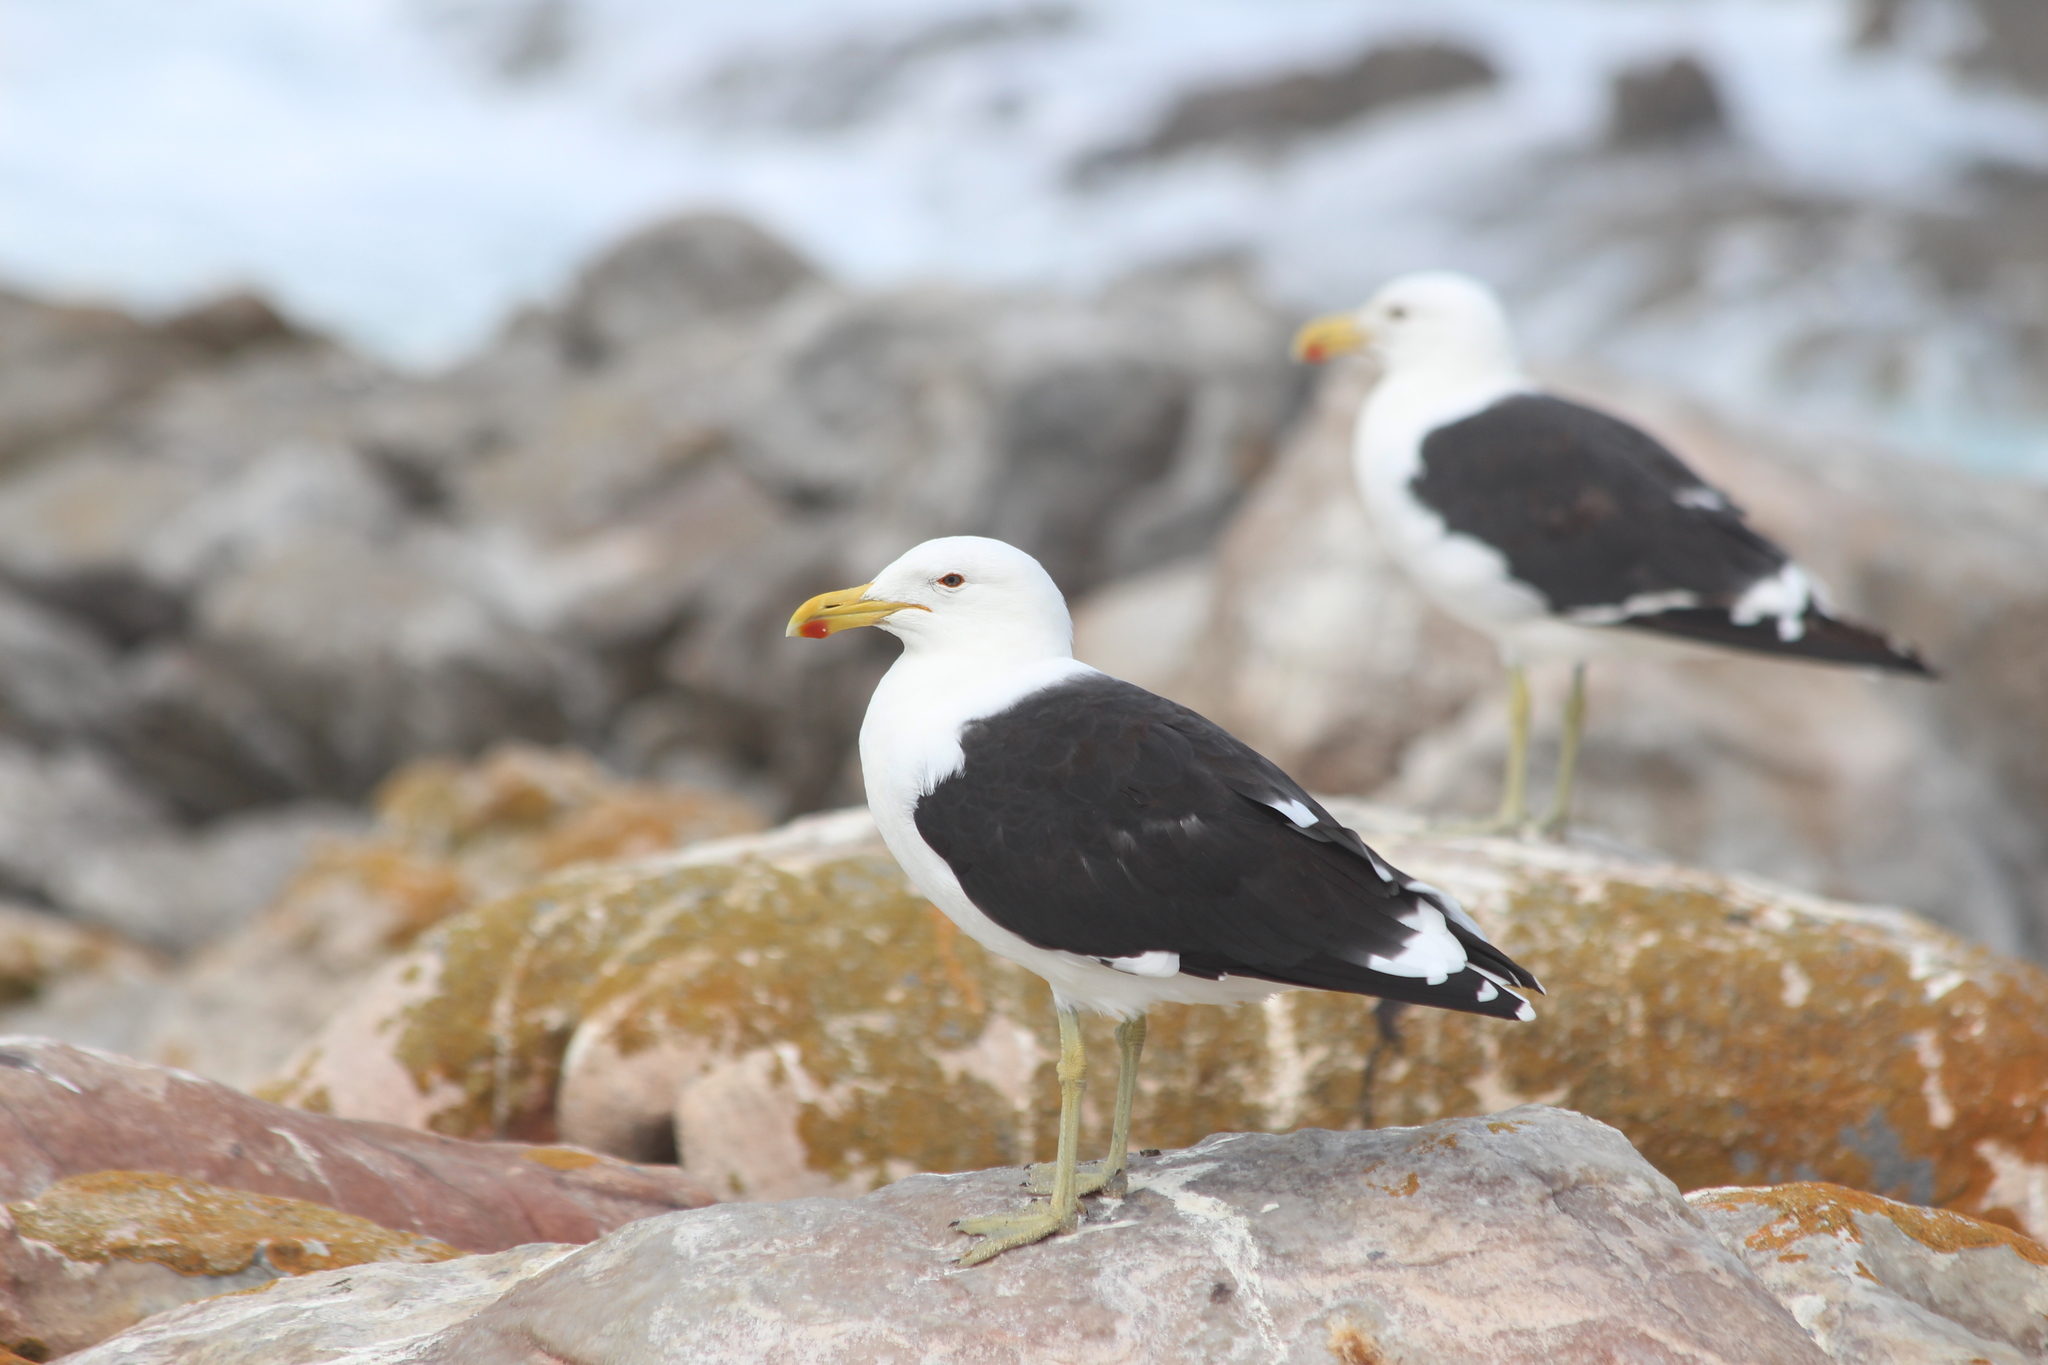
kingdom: Animalia
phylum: Chordata
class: Aves
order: Charadriiformes
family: Laridae
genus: Larus
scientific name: Larus dominicanus
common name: Kelp gull
